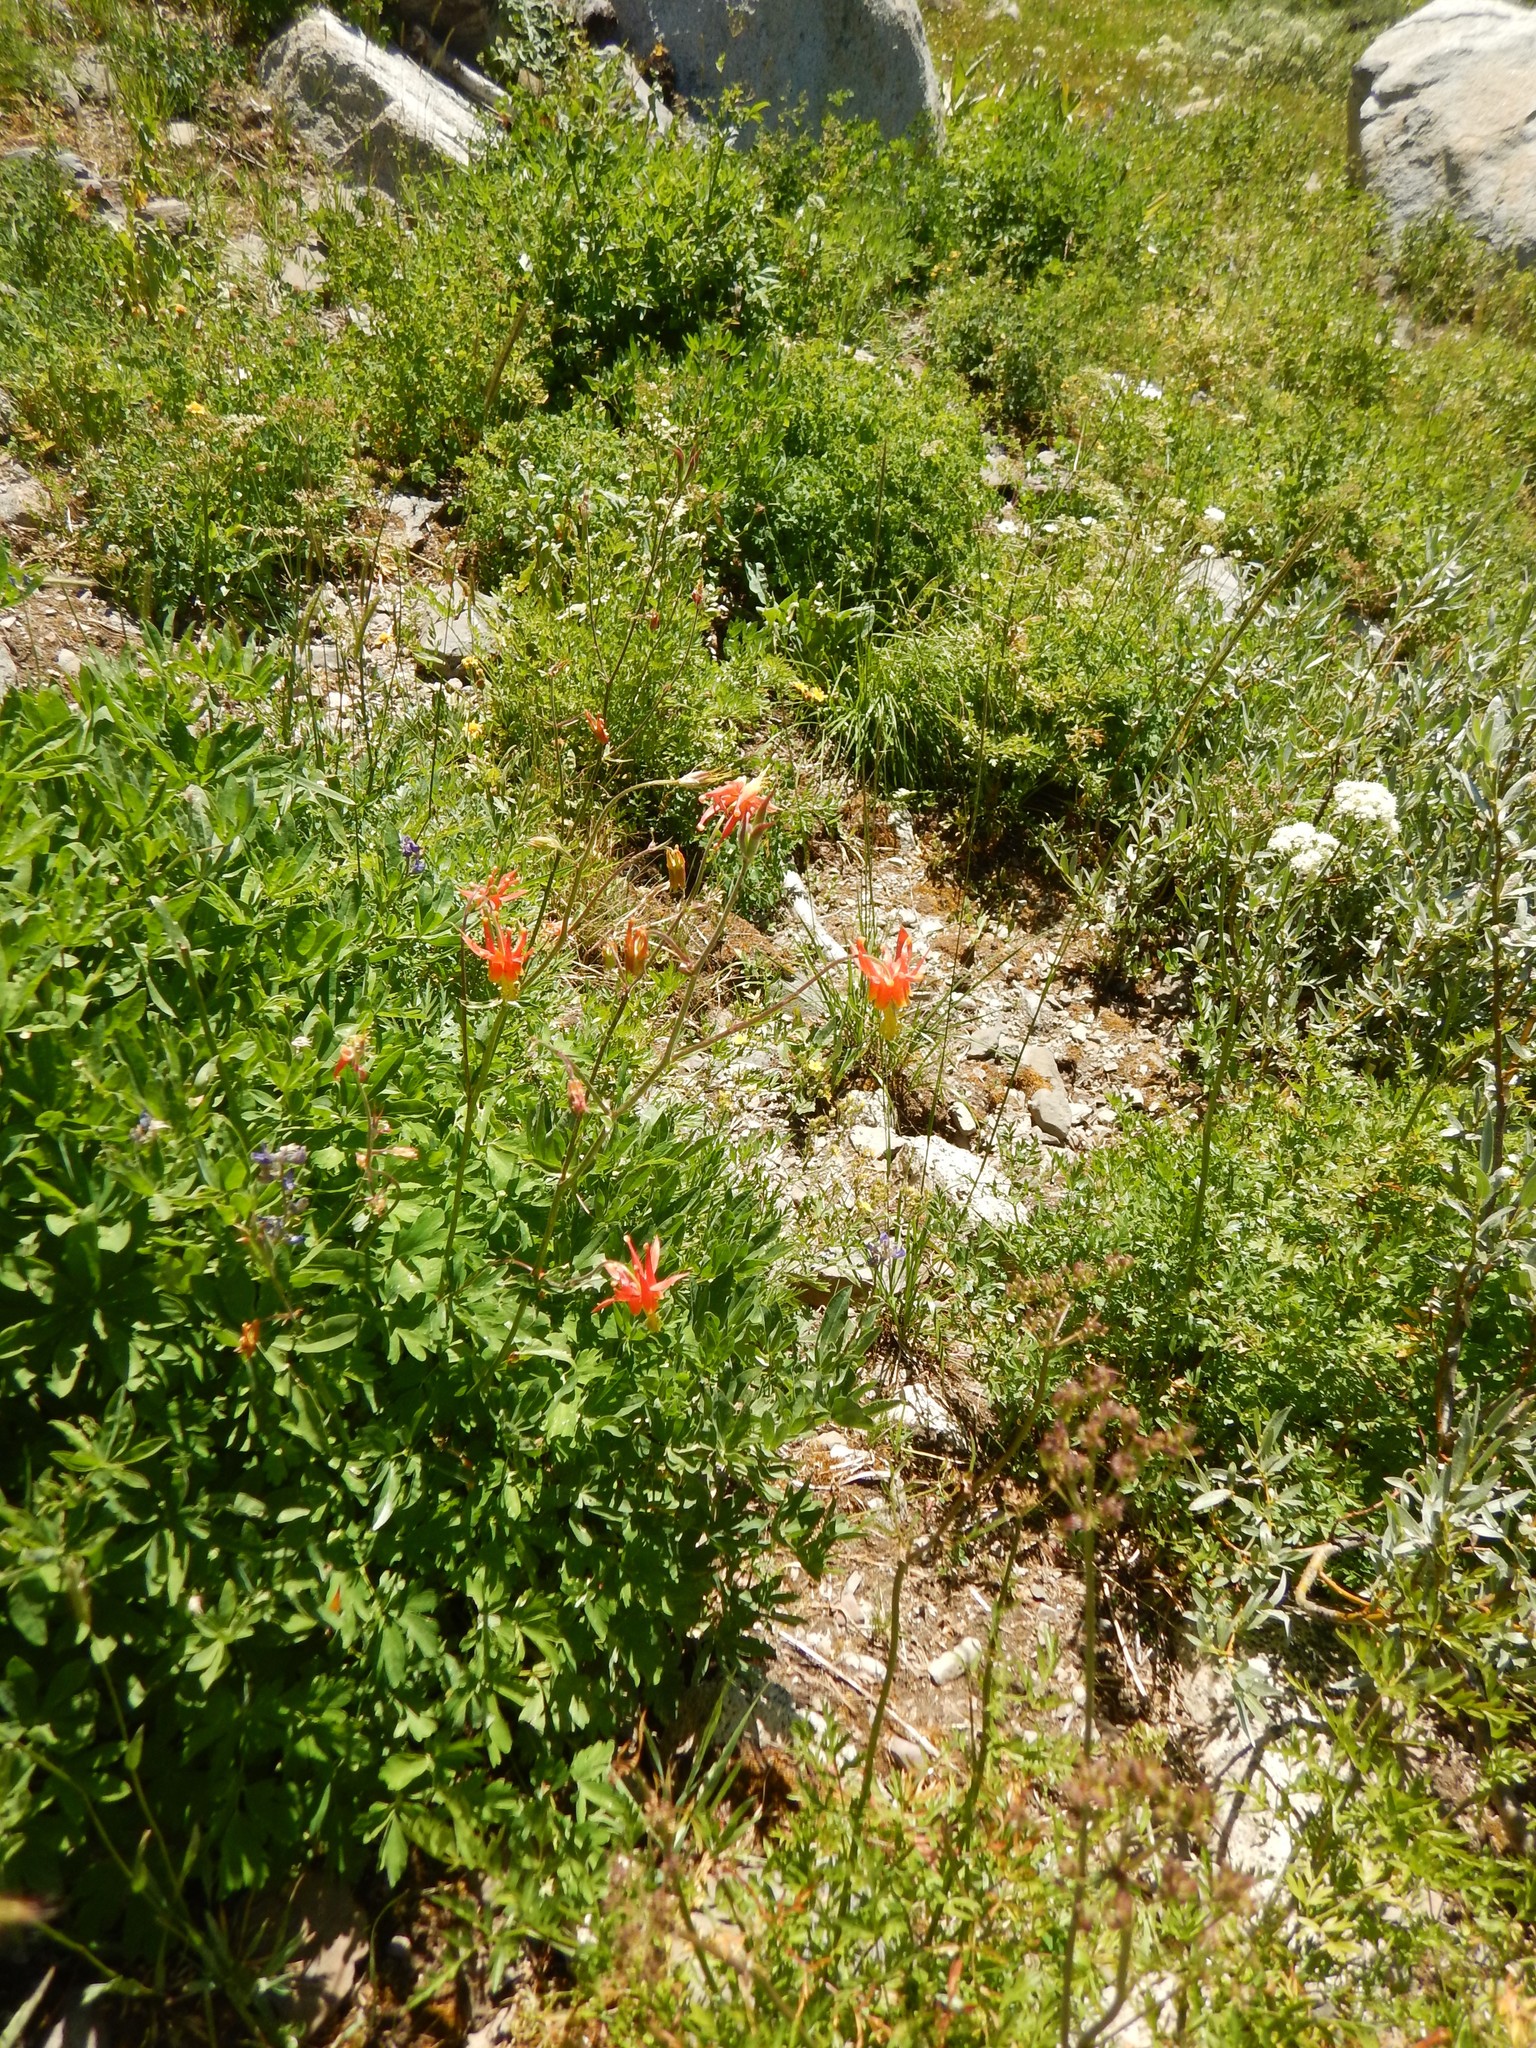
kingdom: Plantae
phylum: Tracheophyta
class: Magnoliopsida
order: Ranunculales
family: Ranunculaceae
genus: Aquilegia
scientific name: Aquilegia formosa
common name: Sitka columbine
